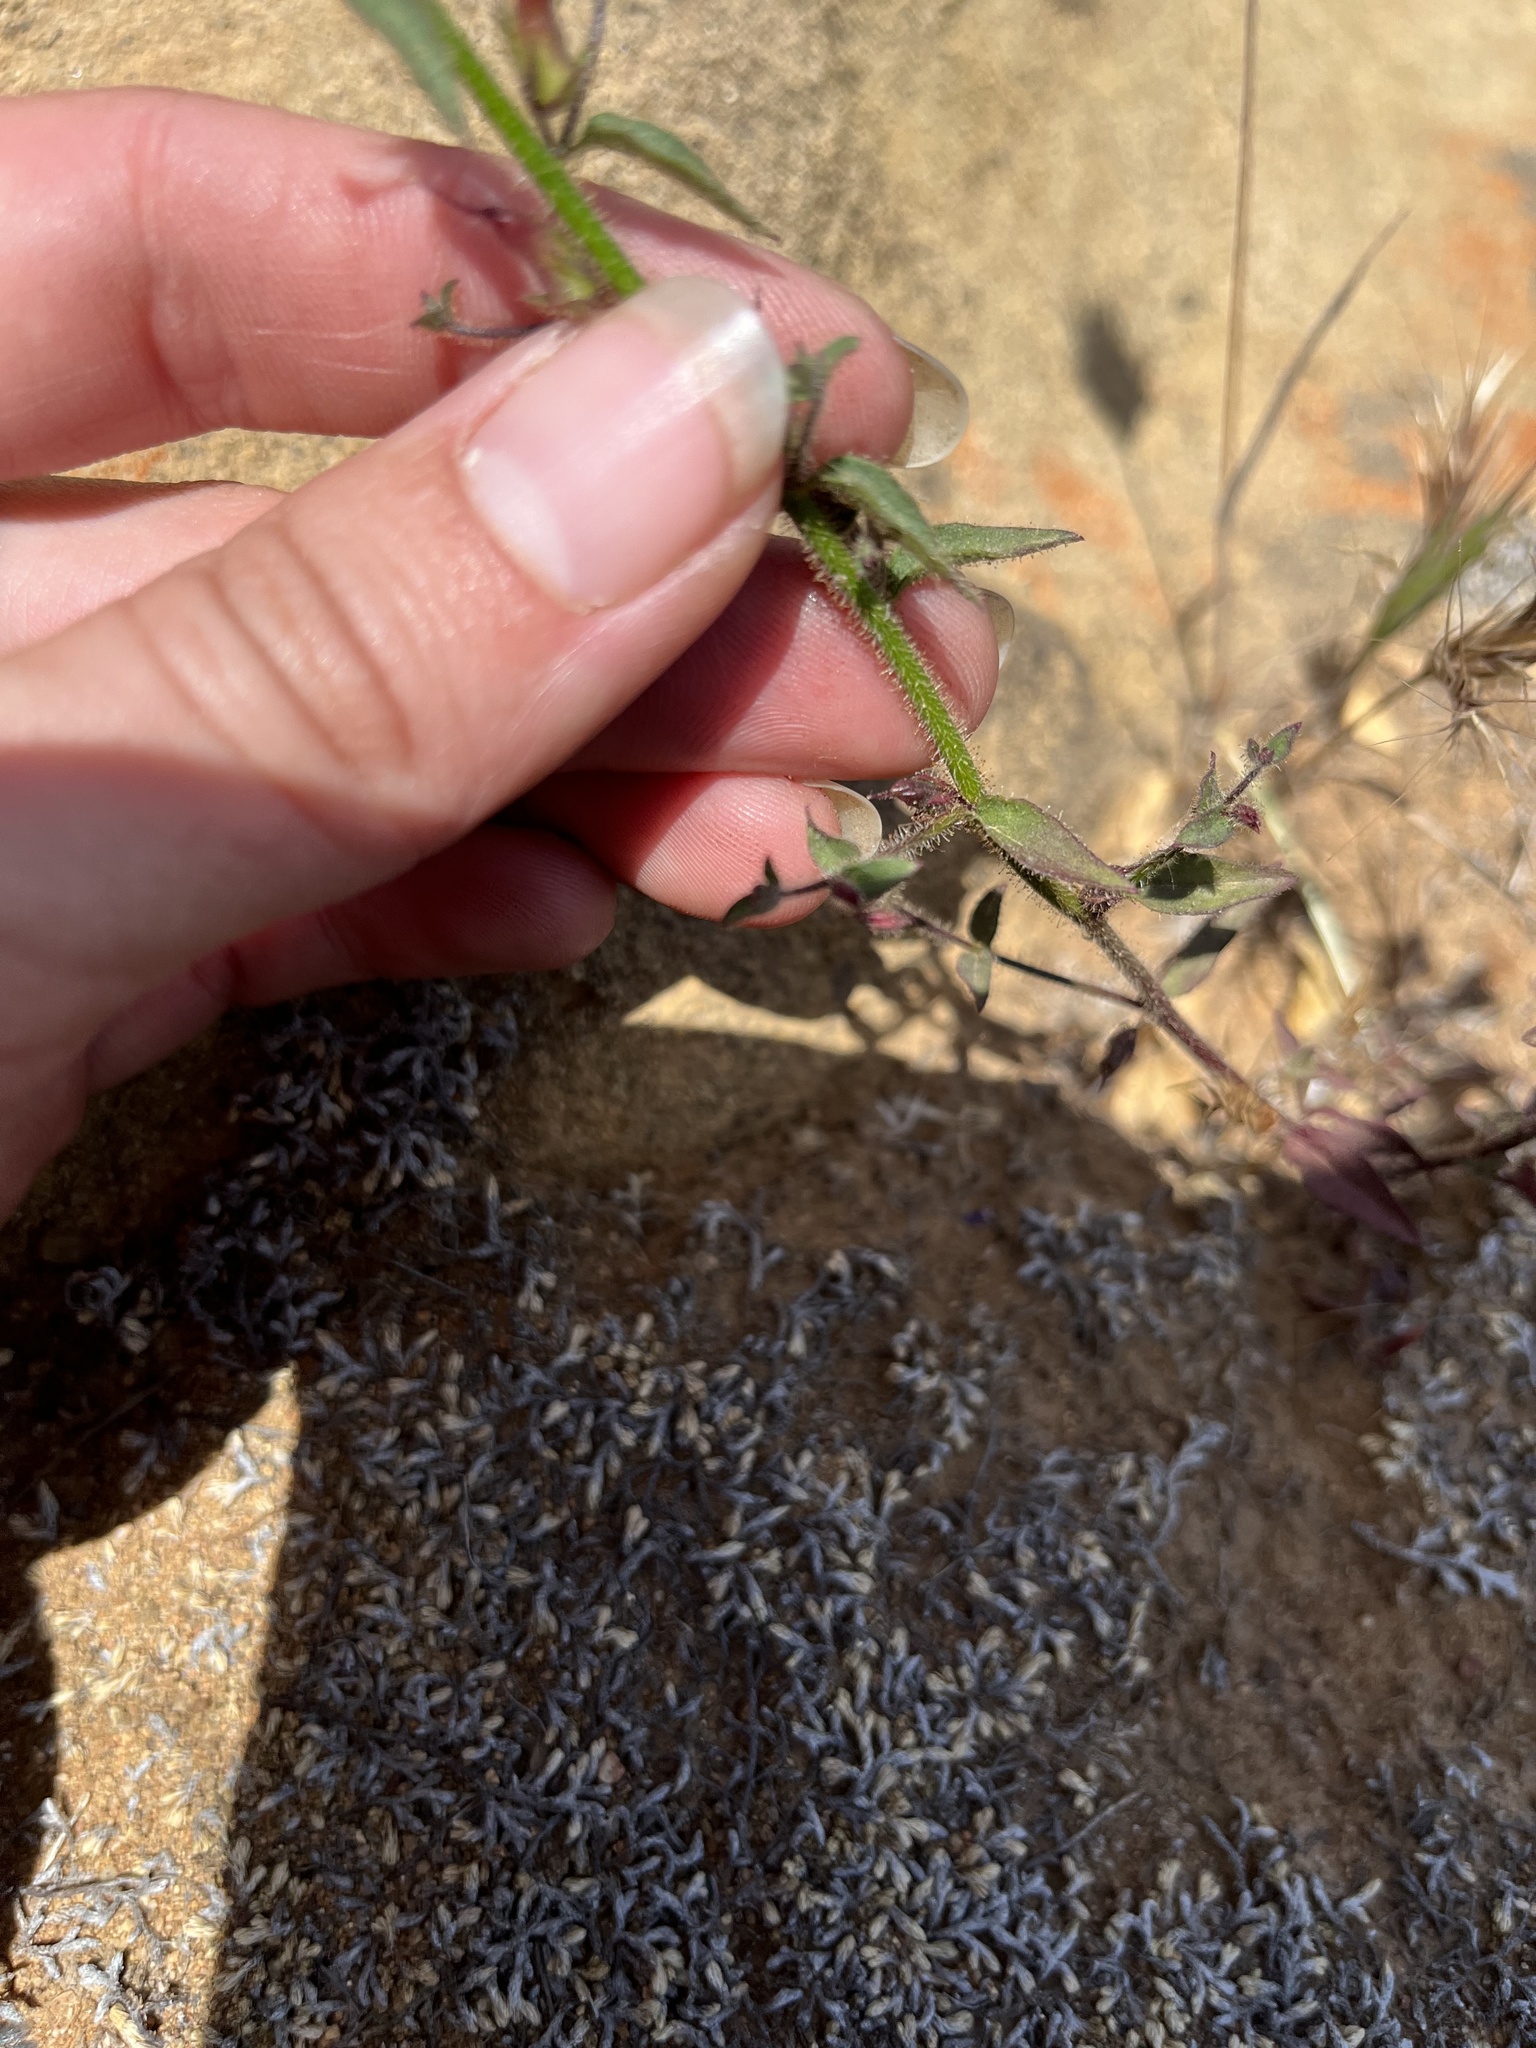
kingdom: Plantae
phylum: Tracheophyta
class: Magnoliopsida
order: Lamiales
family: Plantaginaceae
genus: Sairocarpus
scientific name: Sairocarpus nuttallianus
